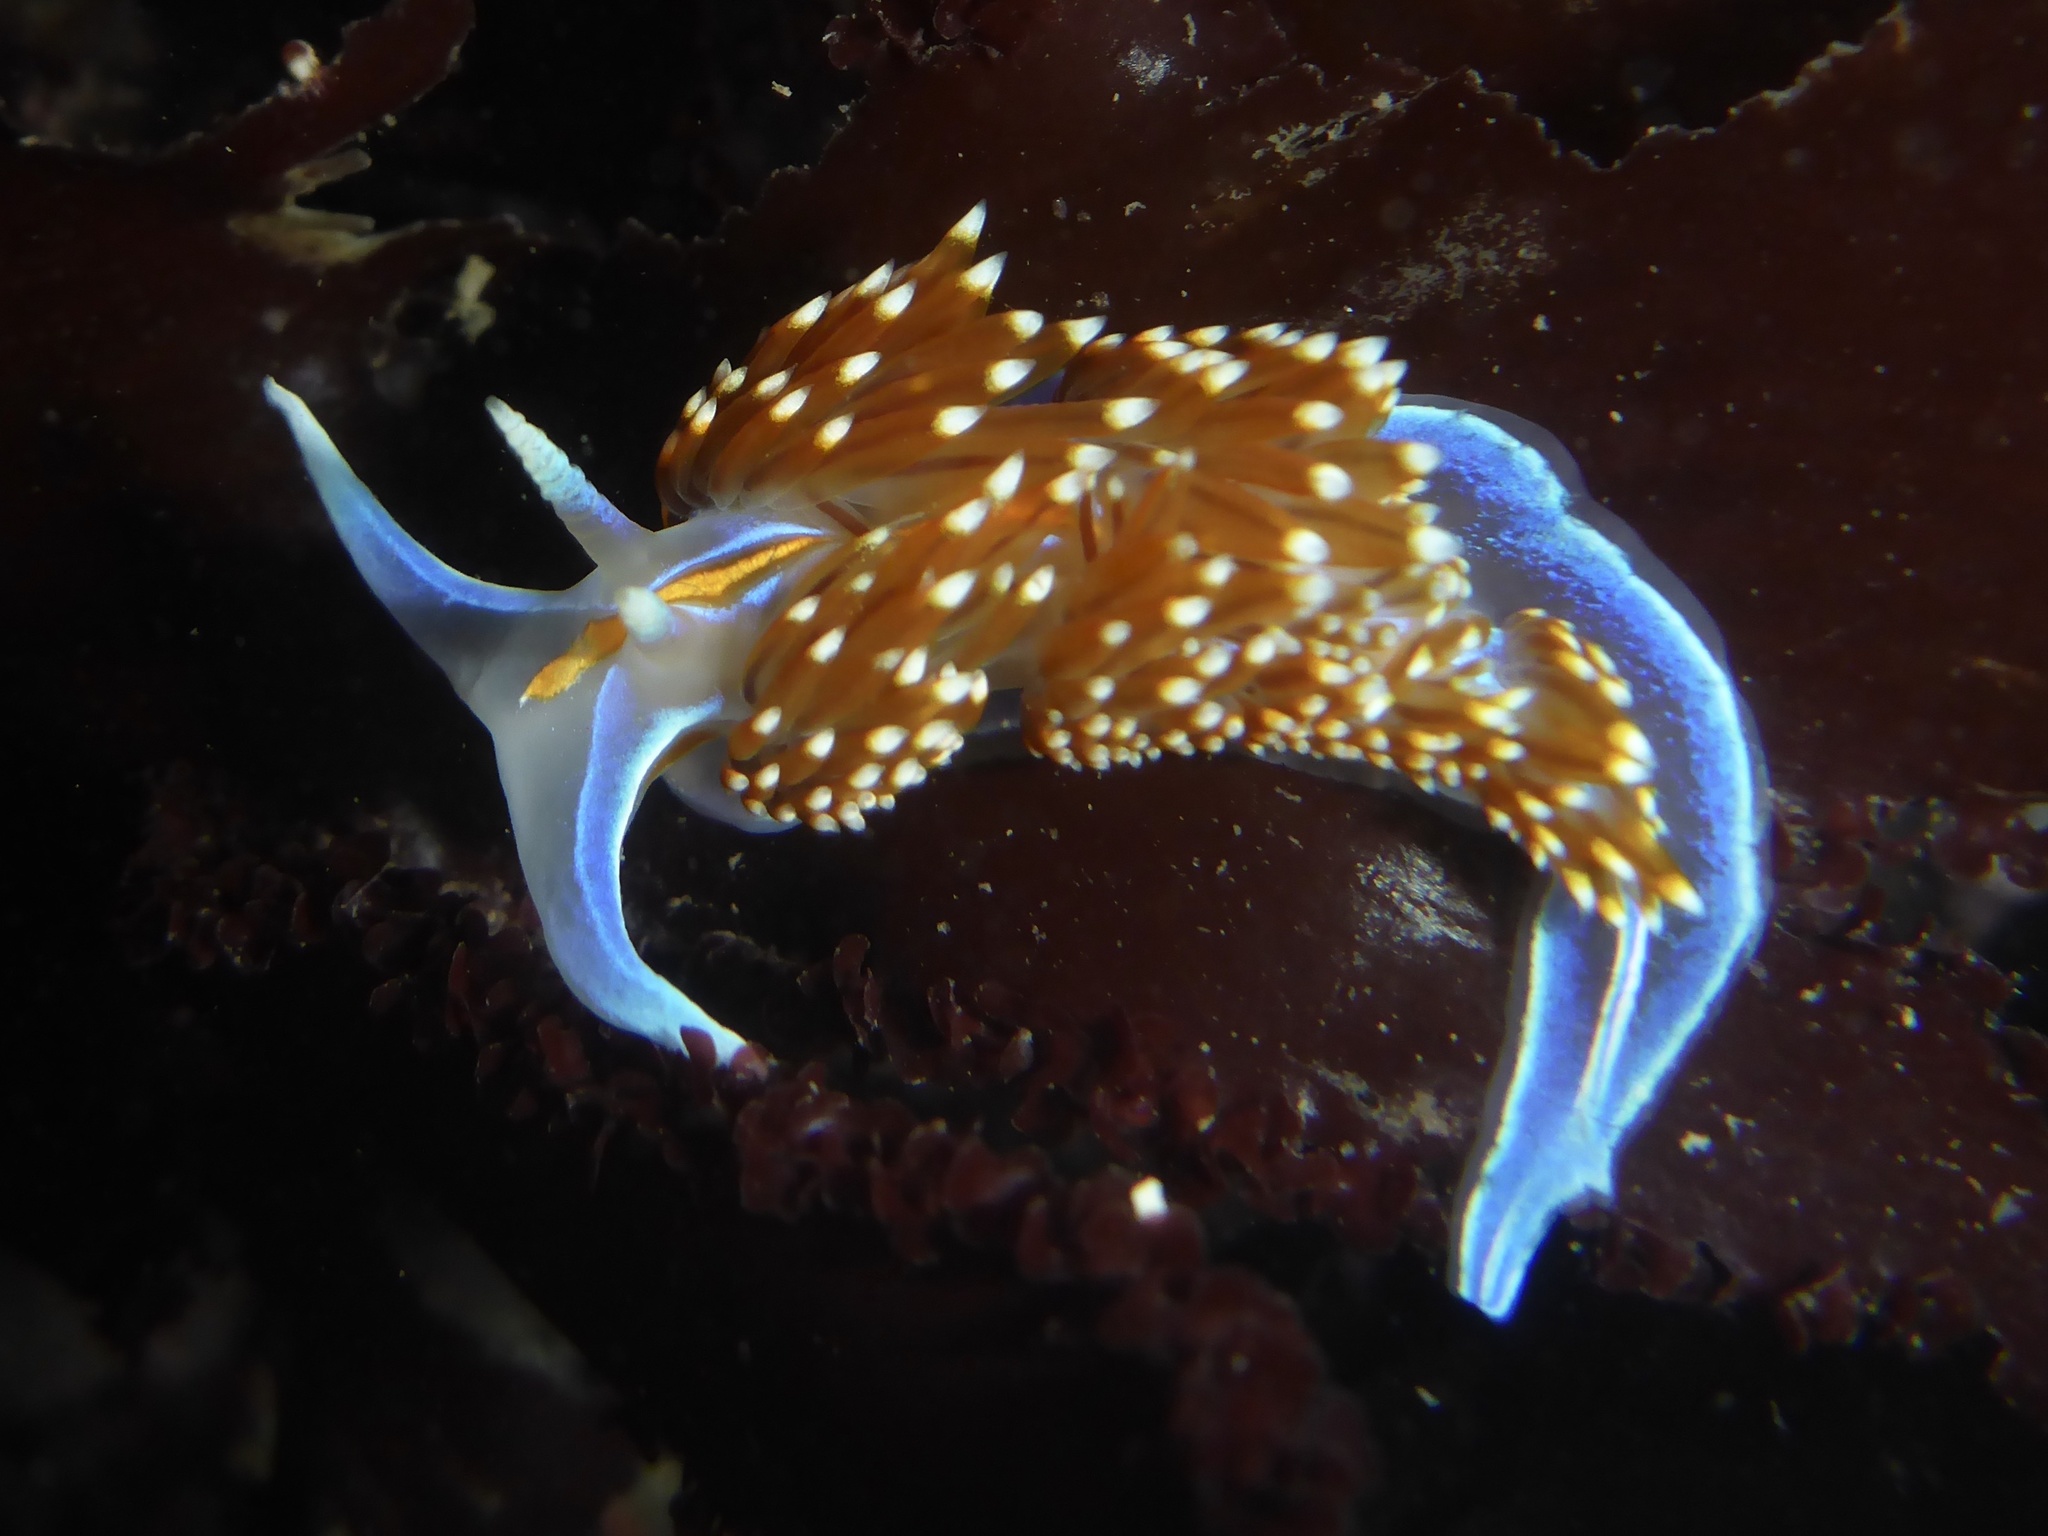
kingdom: Animalia
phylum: Mollusca
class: Gastropoda
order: Nudibranchia
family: Myrrhinidae
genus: Hermissenda
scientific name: Hermissenda opalescens
